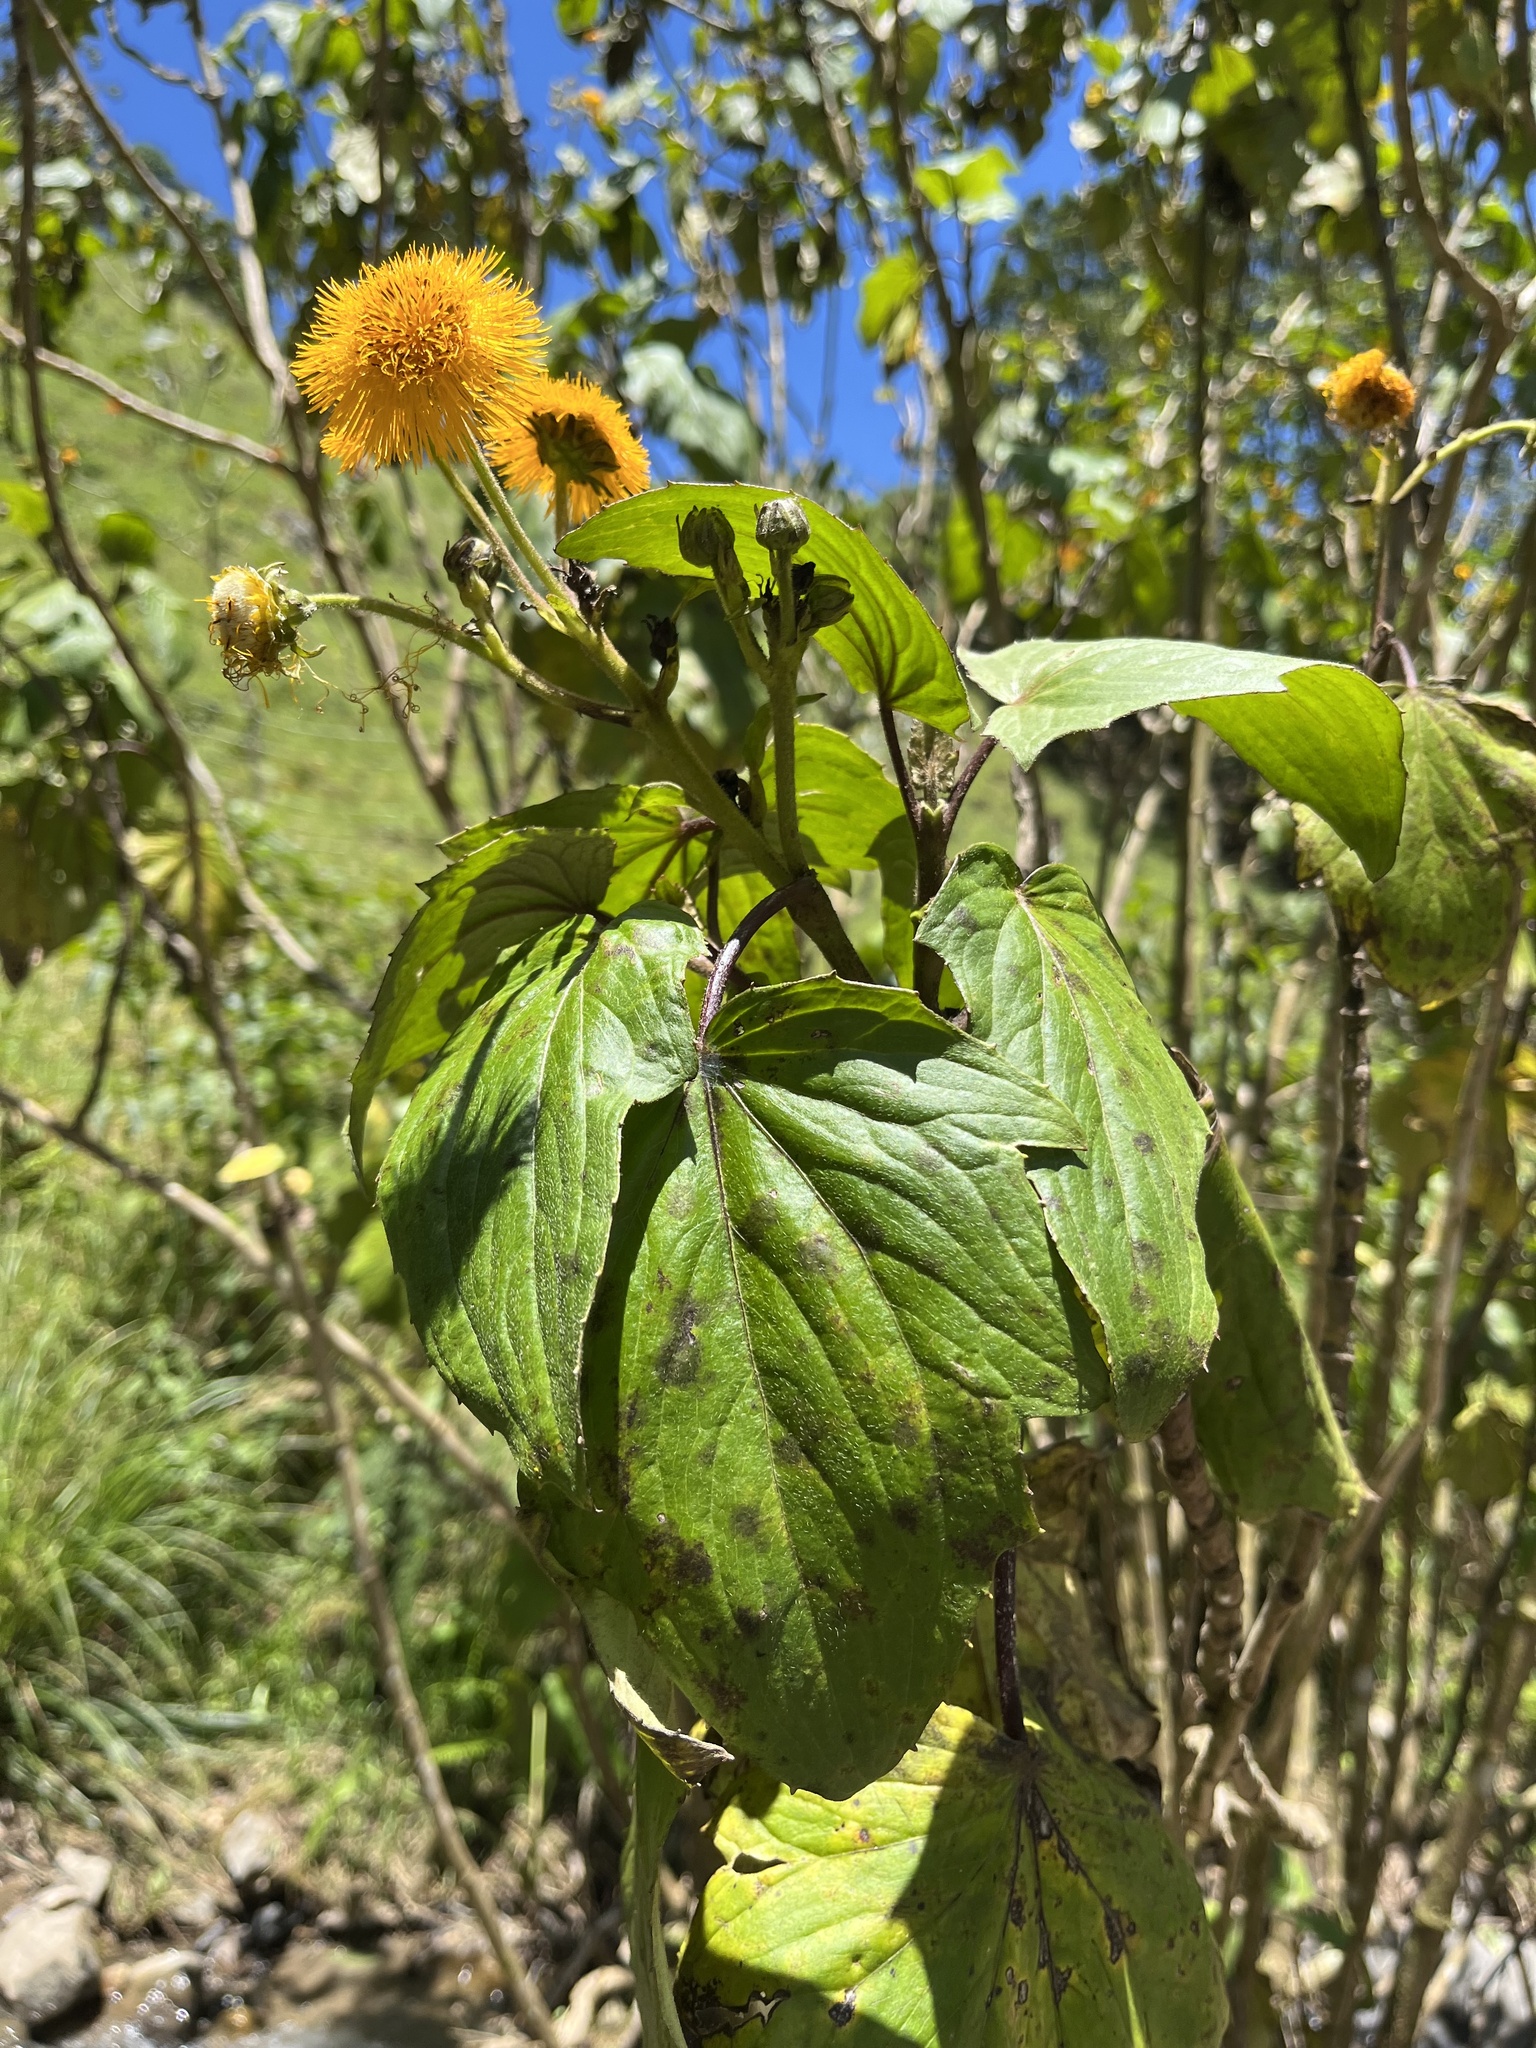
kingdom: Plantae
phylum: Tracheophyta
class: Magnoliopsida
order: Asterales
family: Asteraceae
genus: Erato
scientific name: Erato vulcanica
